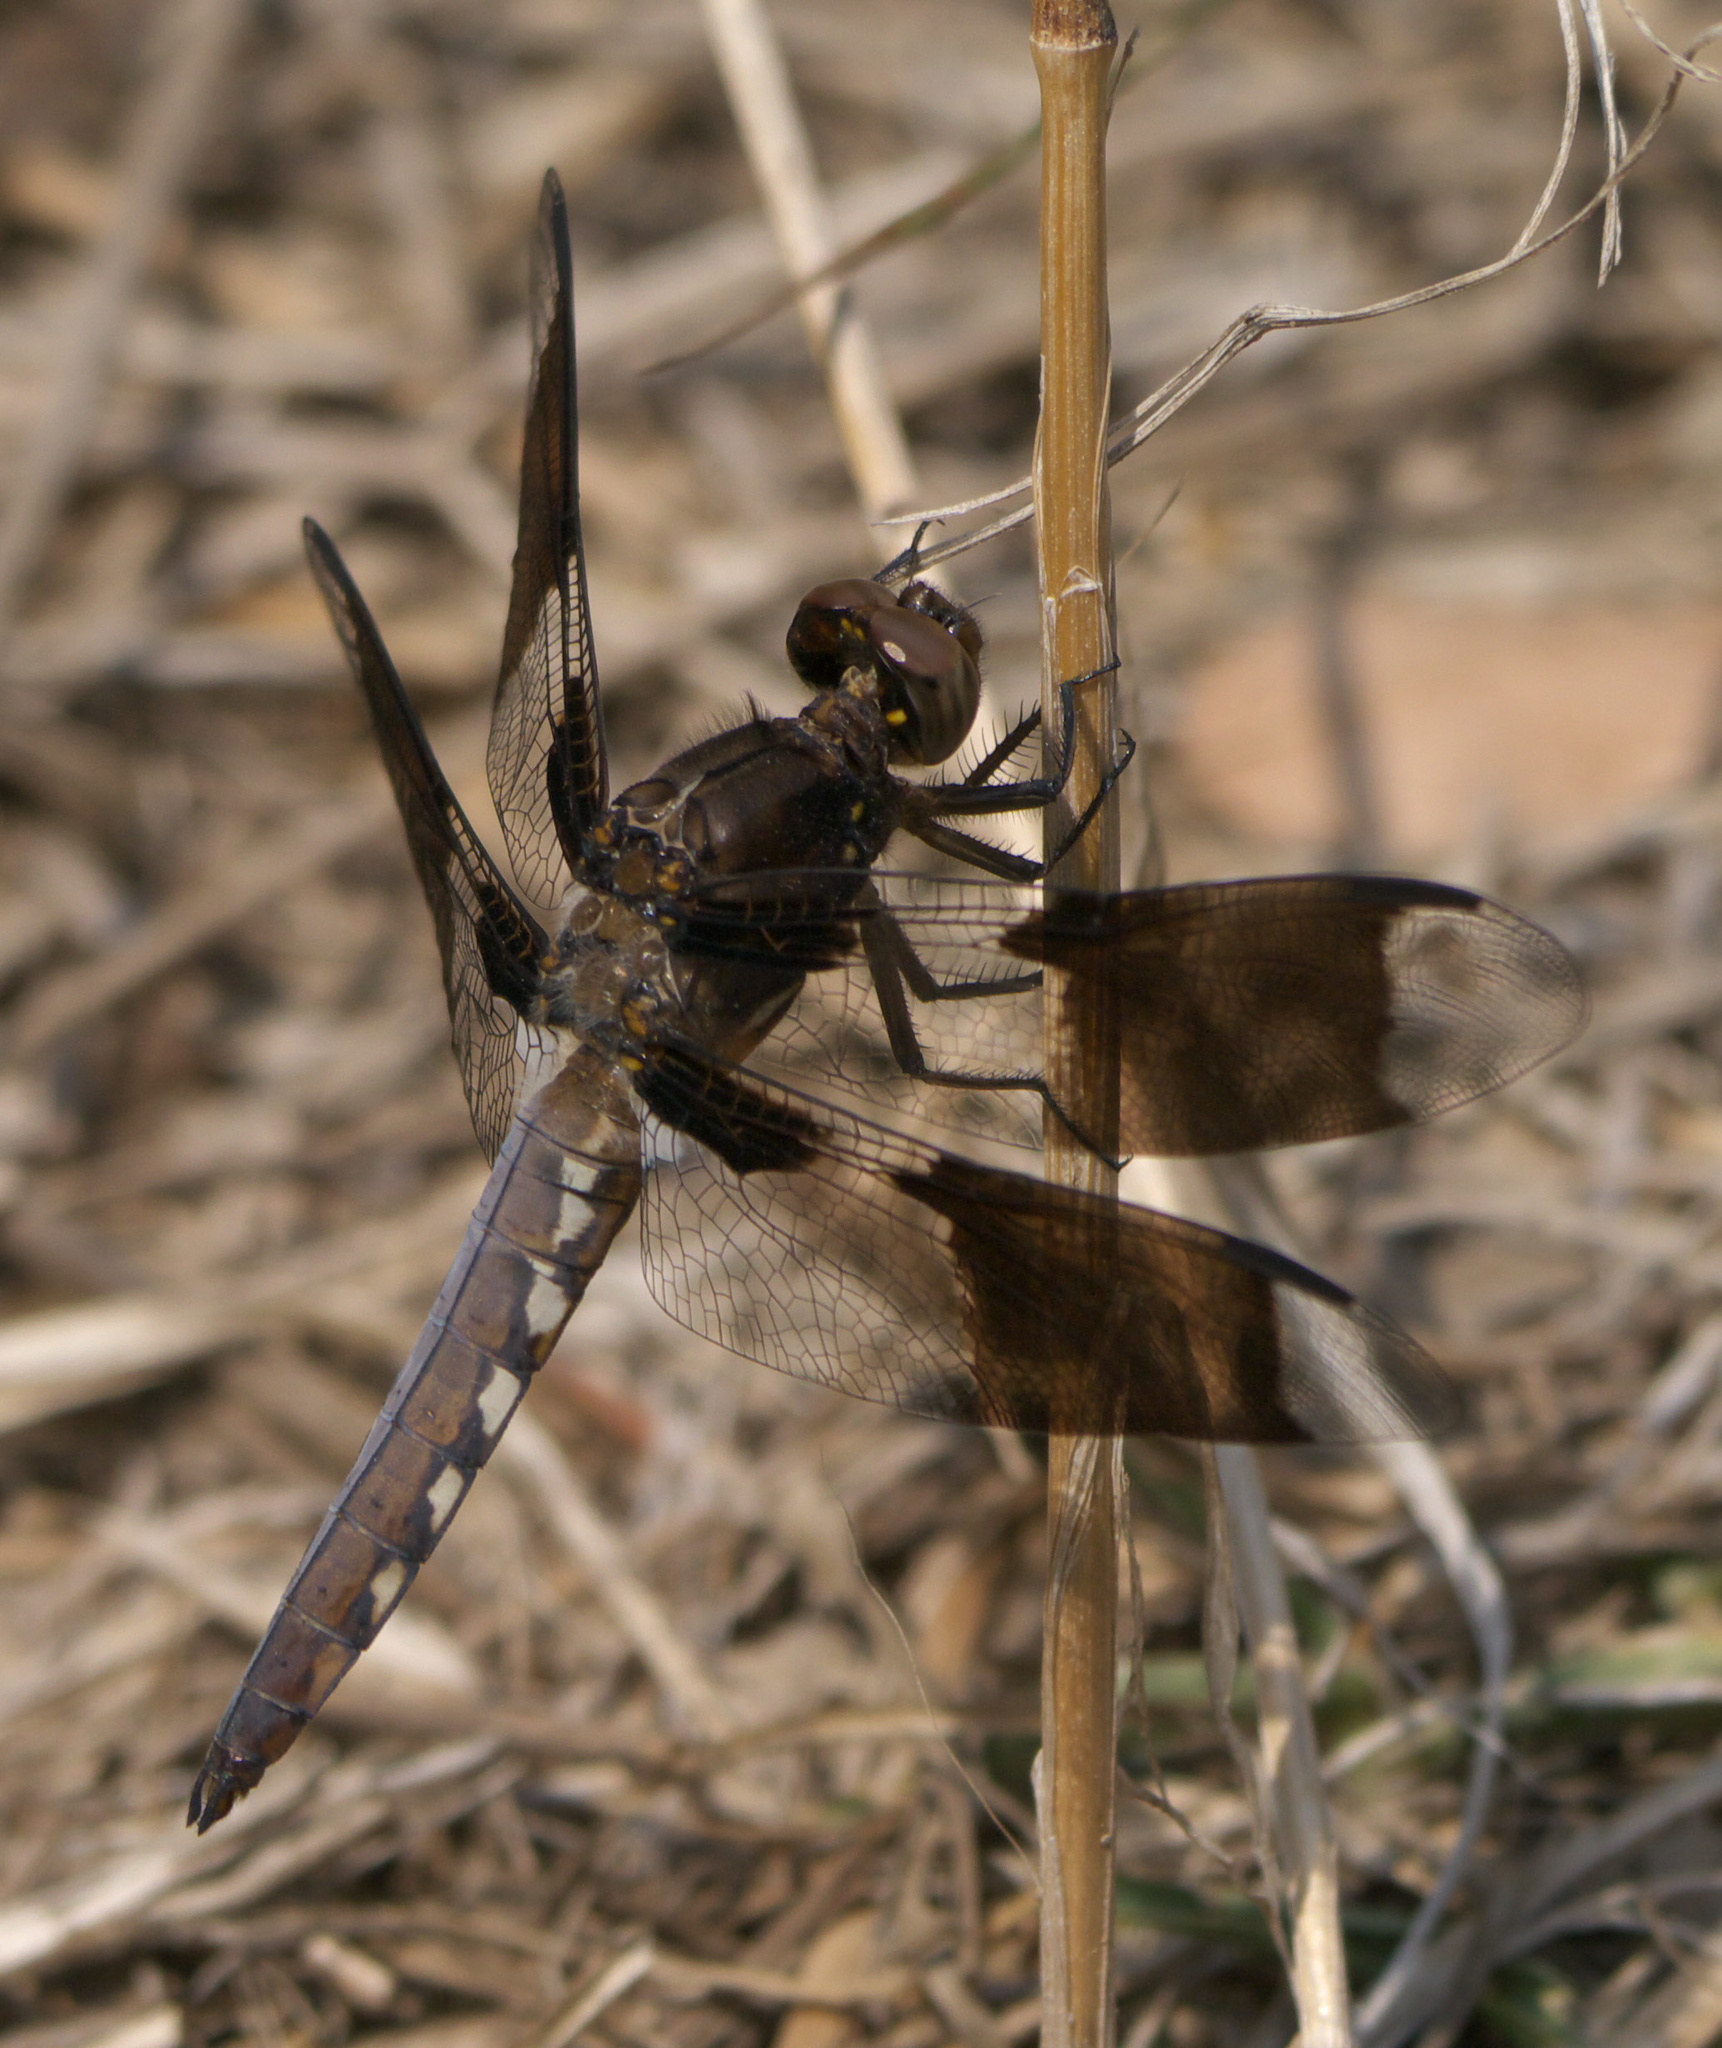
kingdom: Animalia
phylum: Arthropoda
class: Insecta
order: Odonata
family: Libellulidae
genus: Plathemis
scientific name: Plathemis lydia
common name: Common whitetail
